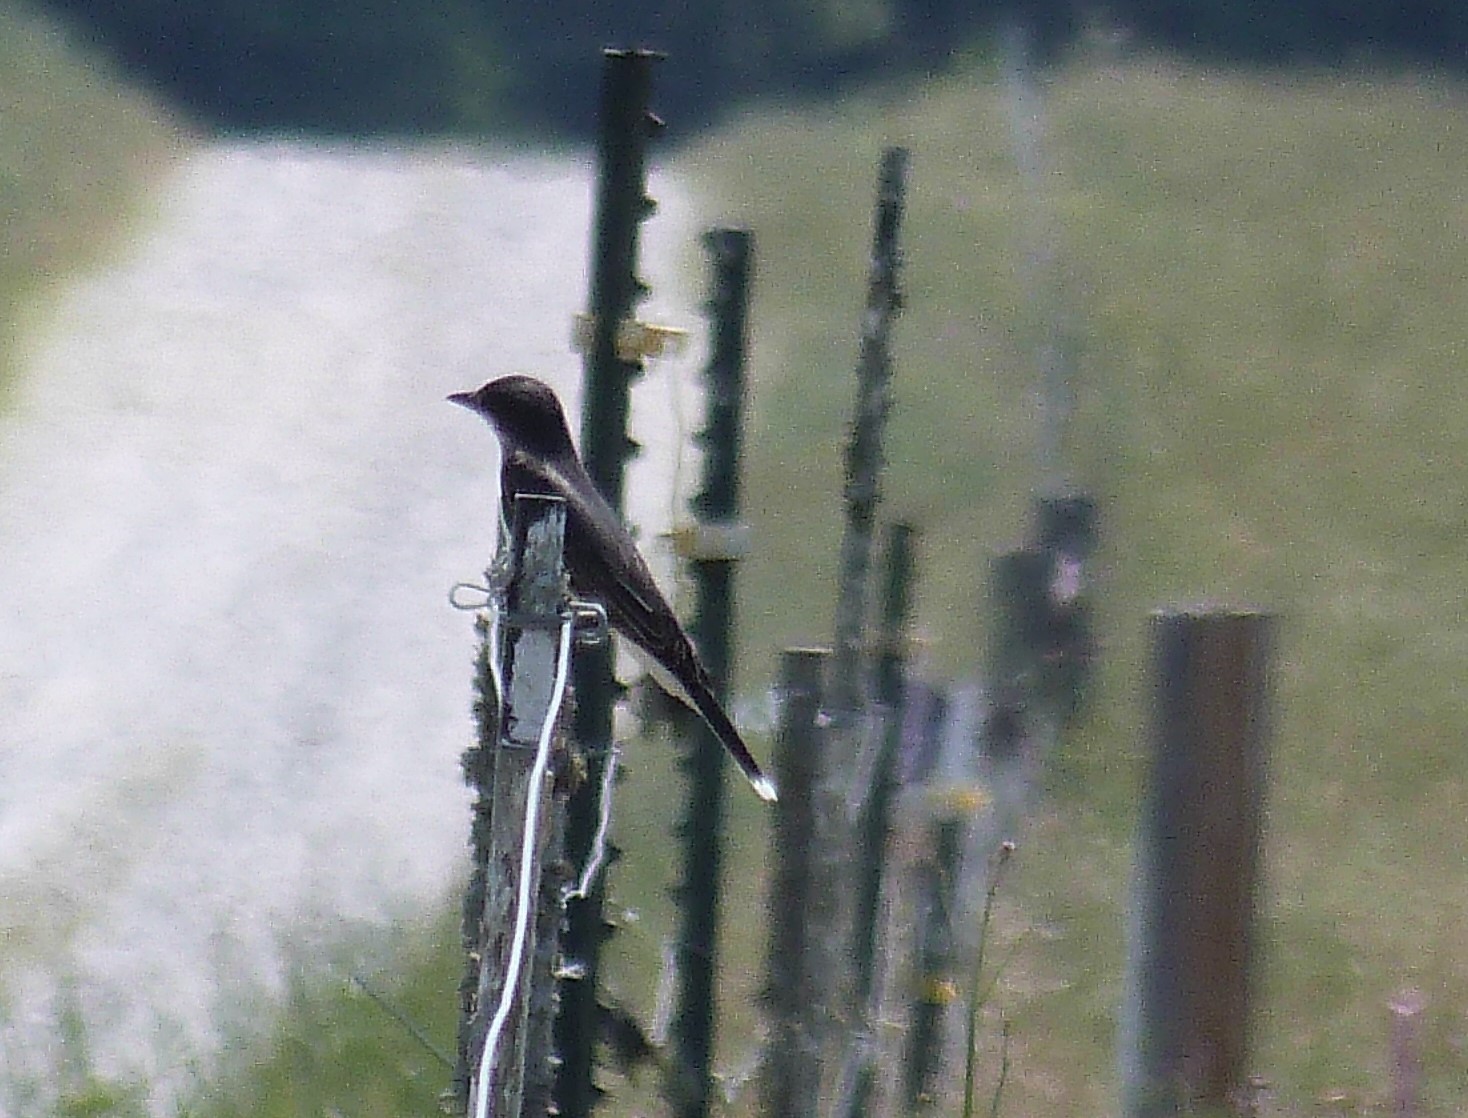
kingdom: Animalia
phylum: Chordata
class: Aves
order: Passeriformes
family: Tyrannidae
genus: Tyrannus
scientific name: Tyrannus tyrannus
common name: Eastern kingbird
